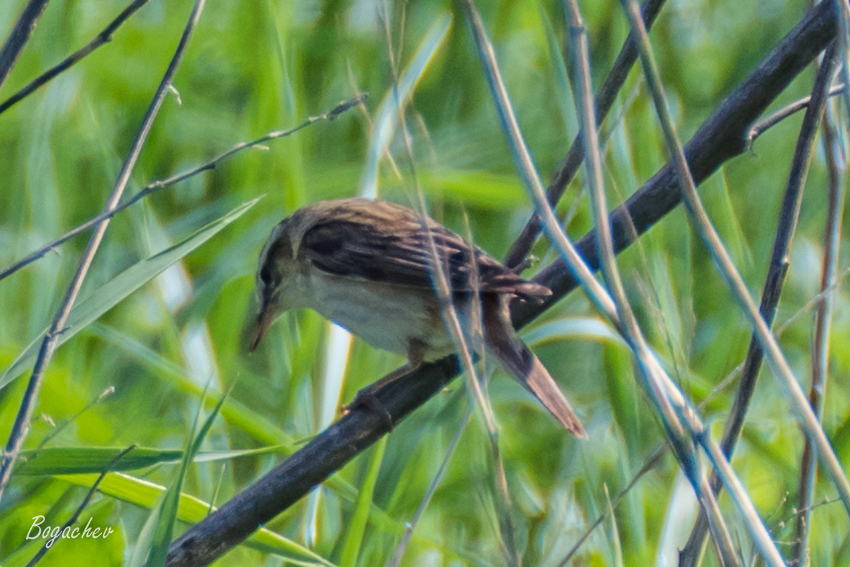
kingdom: Animalia
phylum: Chordata
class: Aves
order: Passeriformes
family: Acrocephalidae
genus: Acrocephalus
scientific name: Acrocephalus schoenobaenus
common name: Sedge warbler
